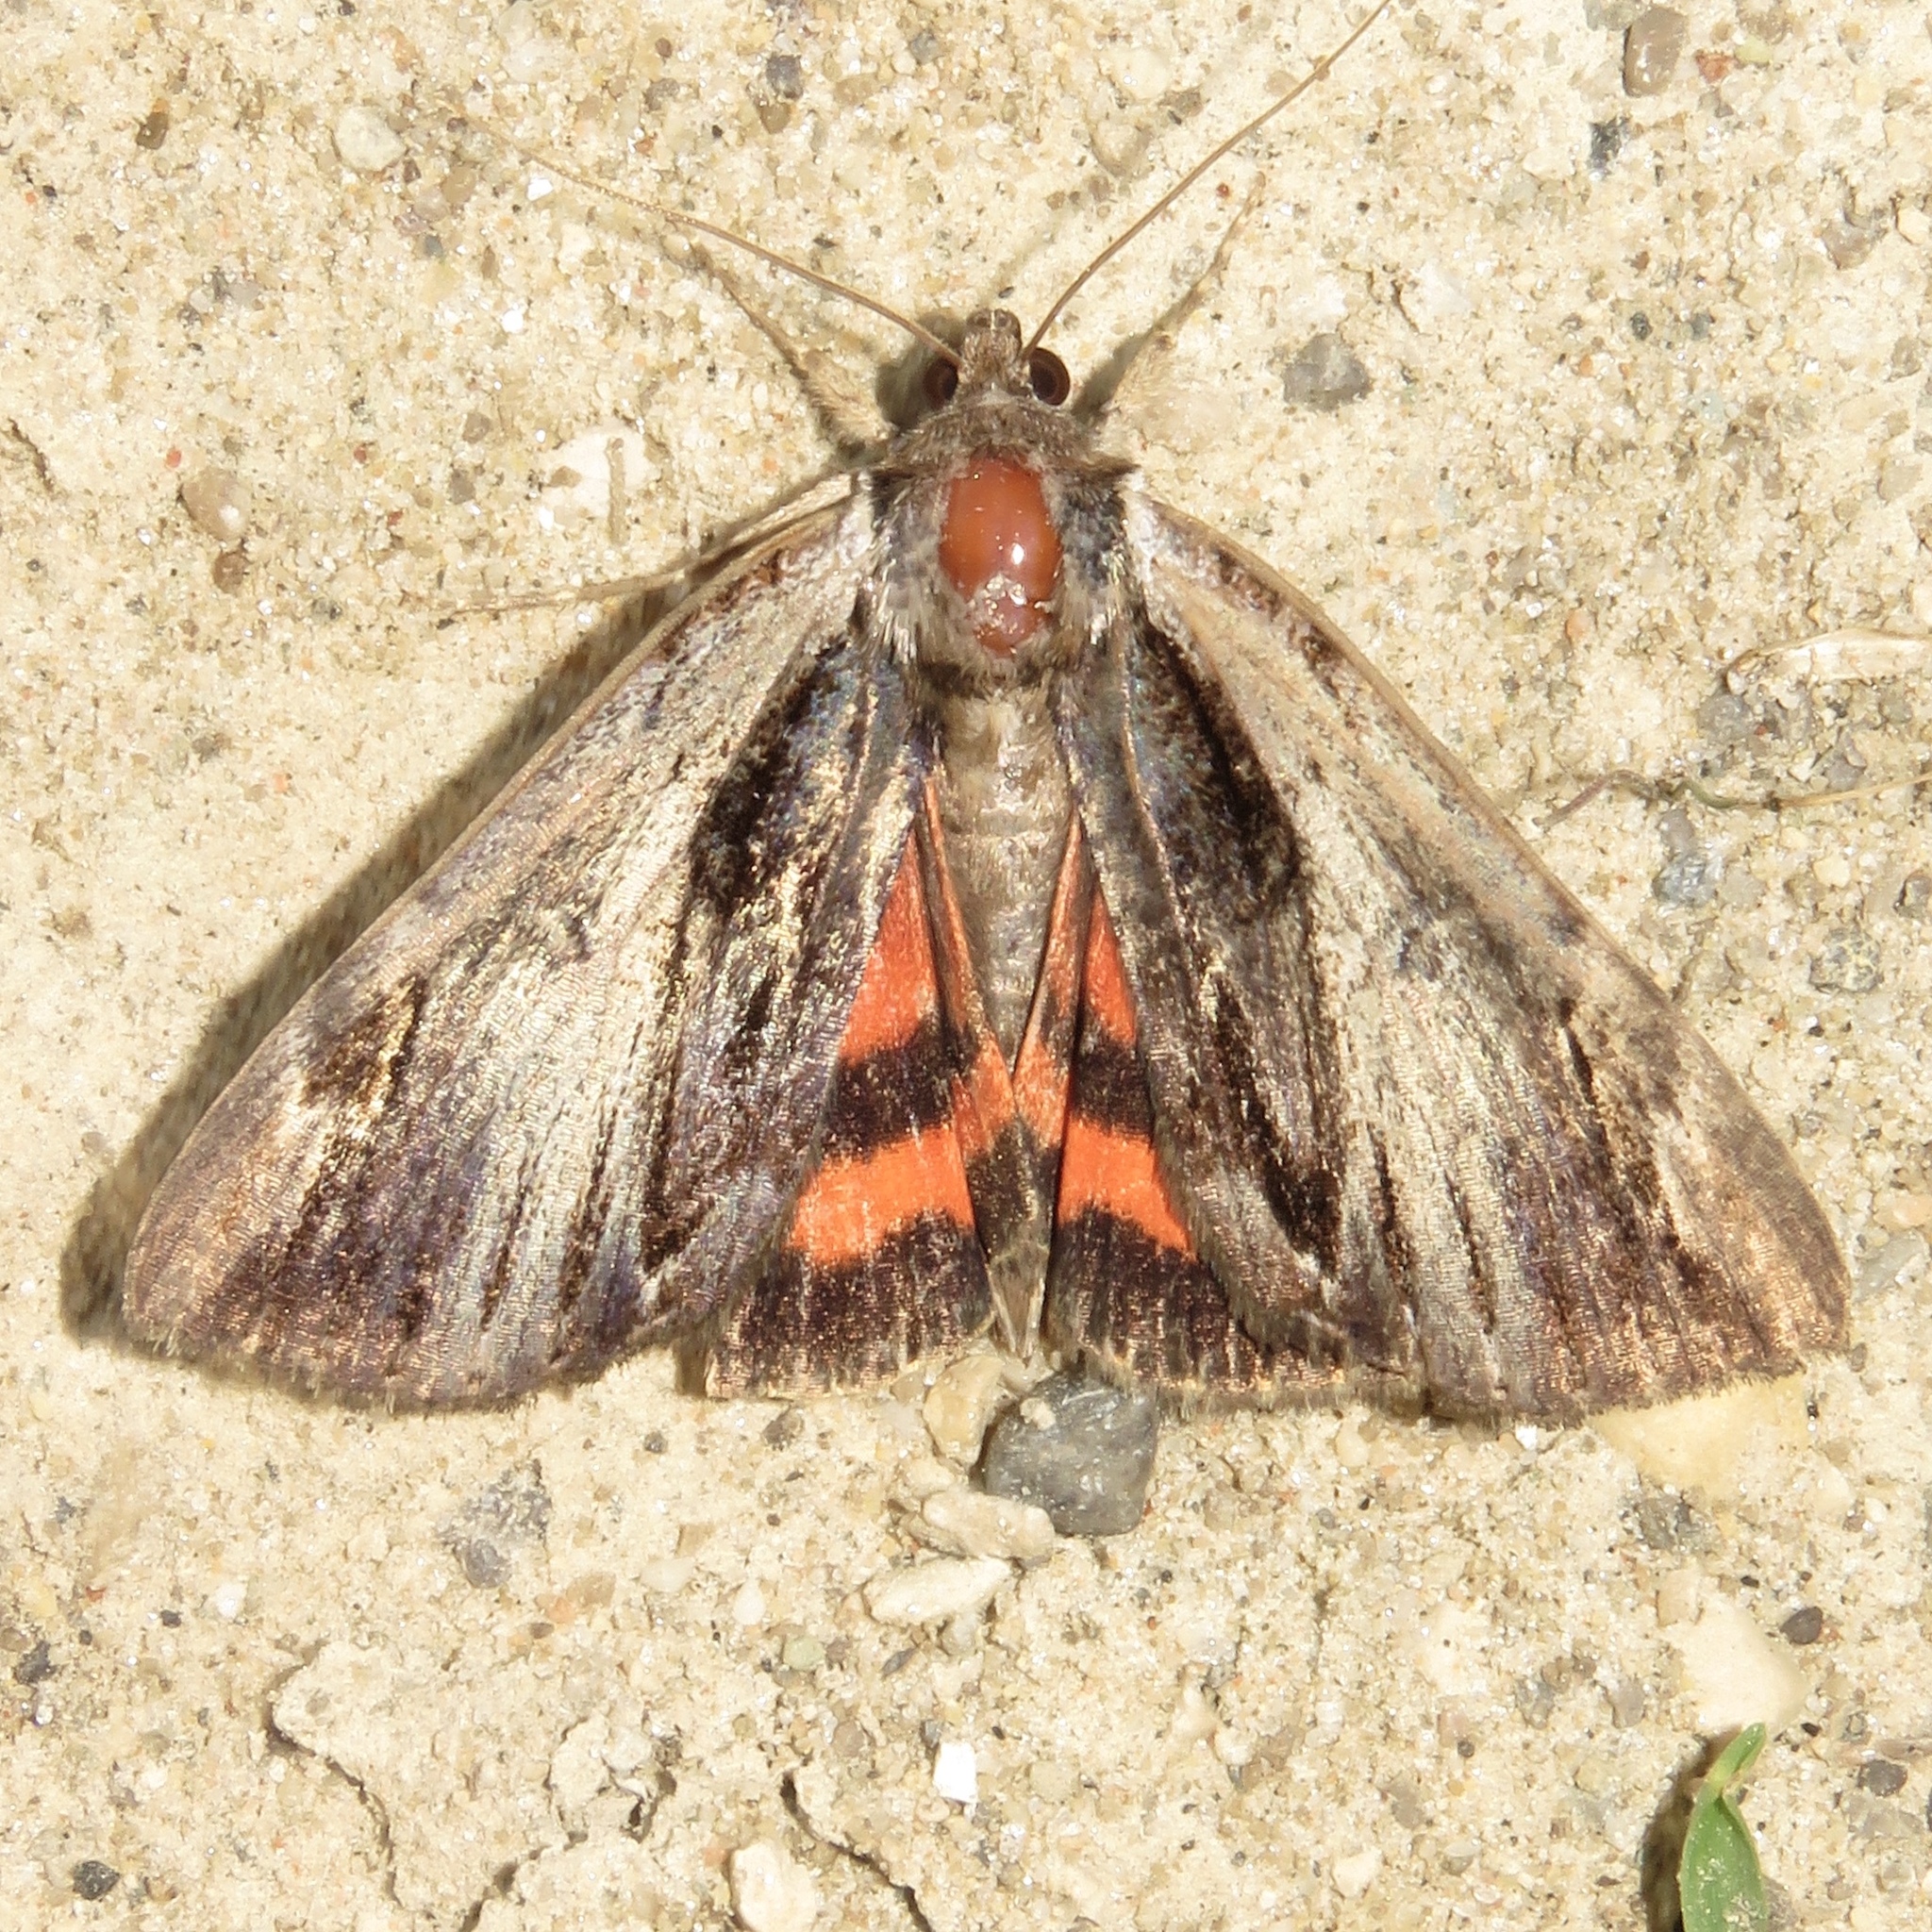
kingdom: Animalia
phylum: Arthropoda
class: Insecta
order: Lepidoptera
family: Erebidae
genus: Catocala
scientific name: Catocala ultronia
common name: Ultronia underwing
